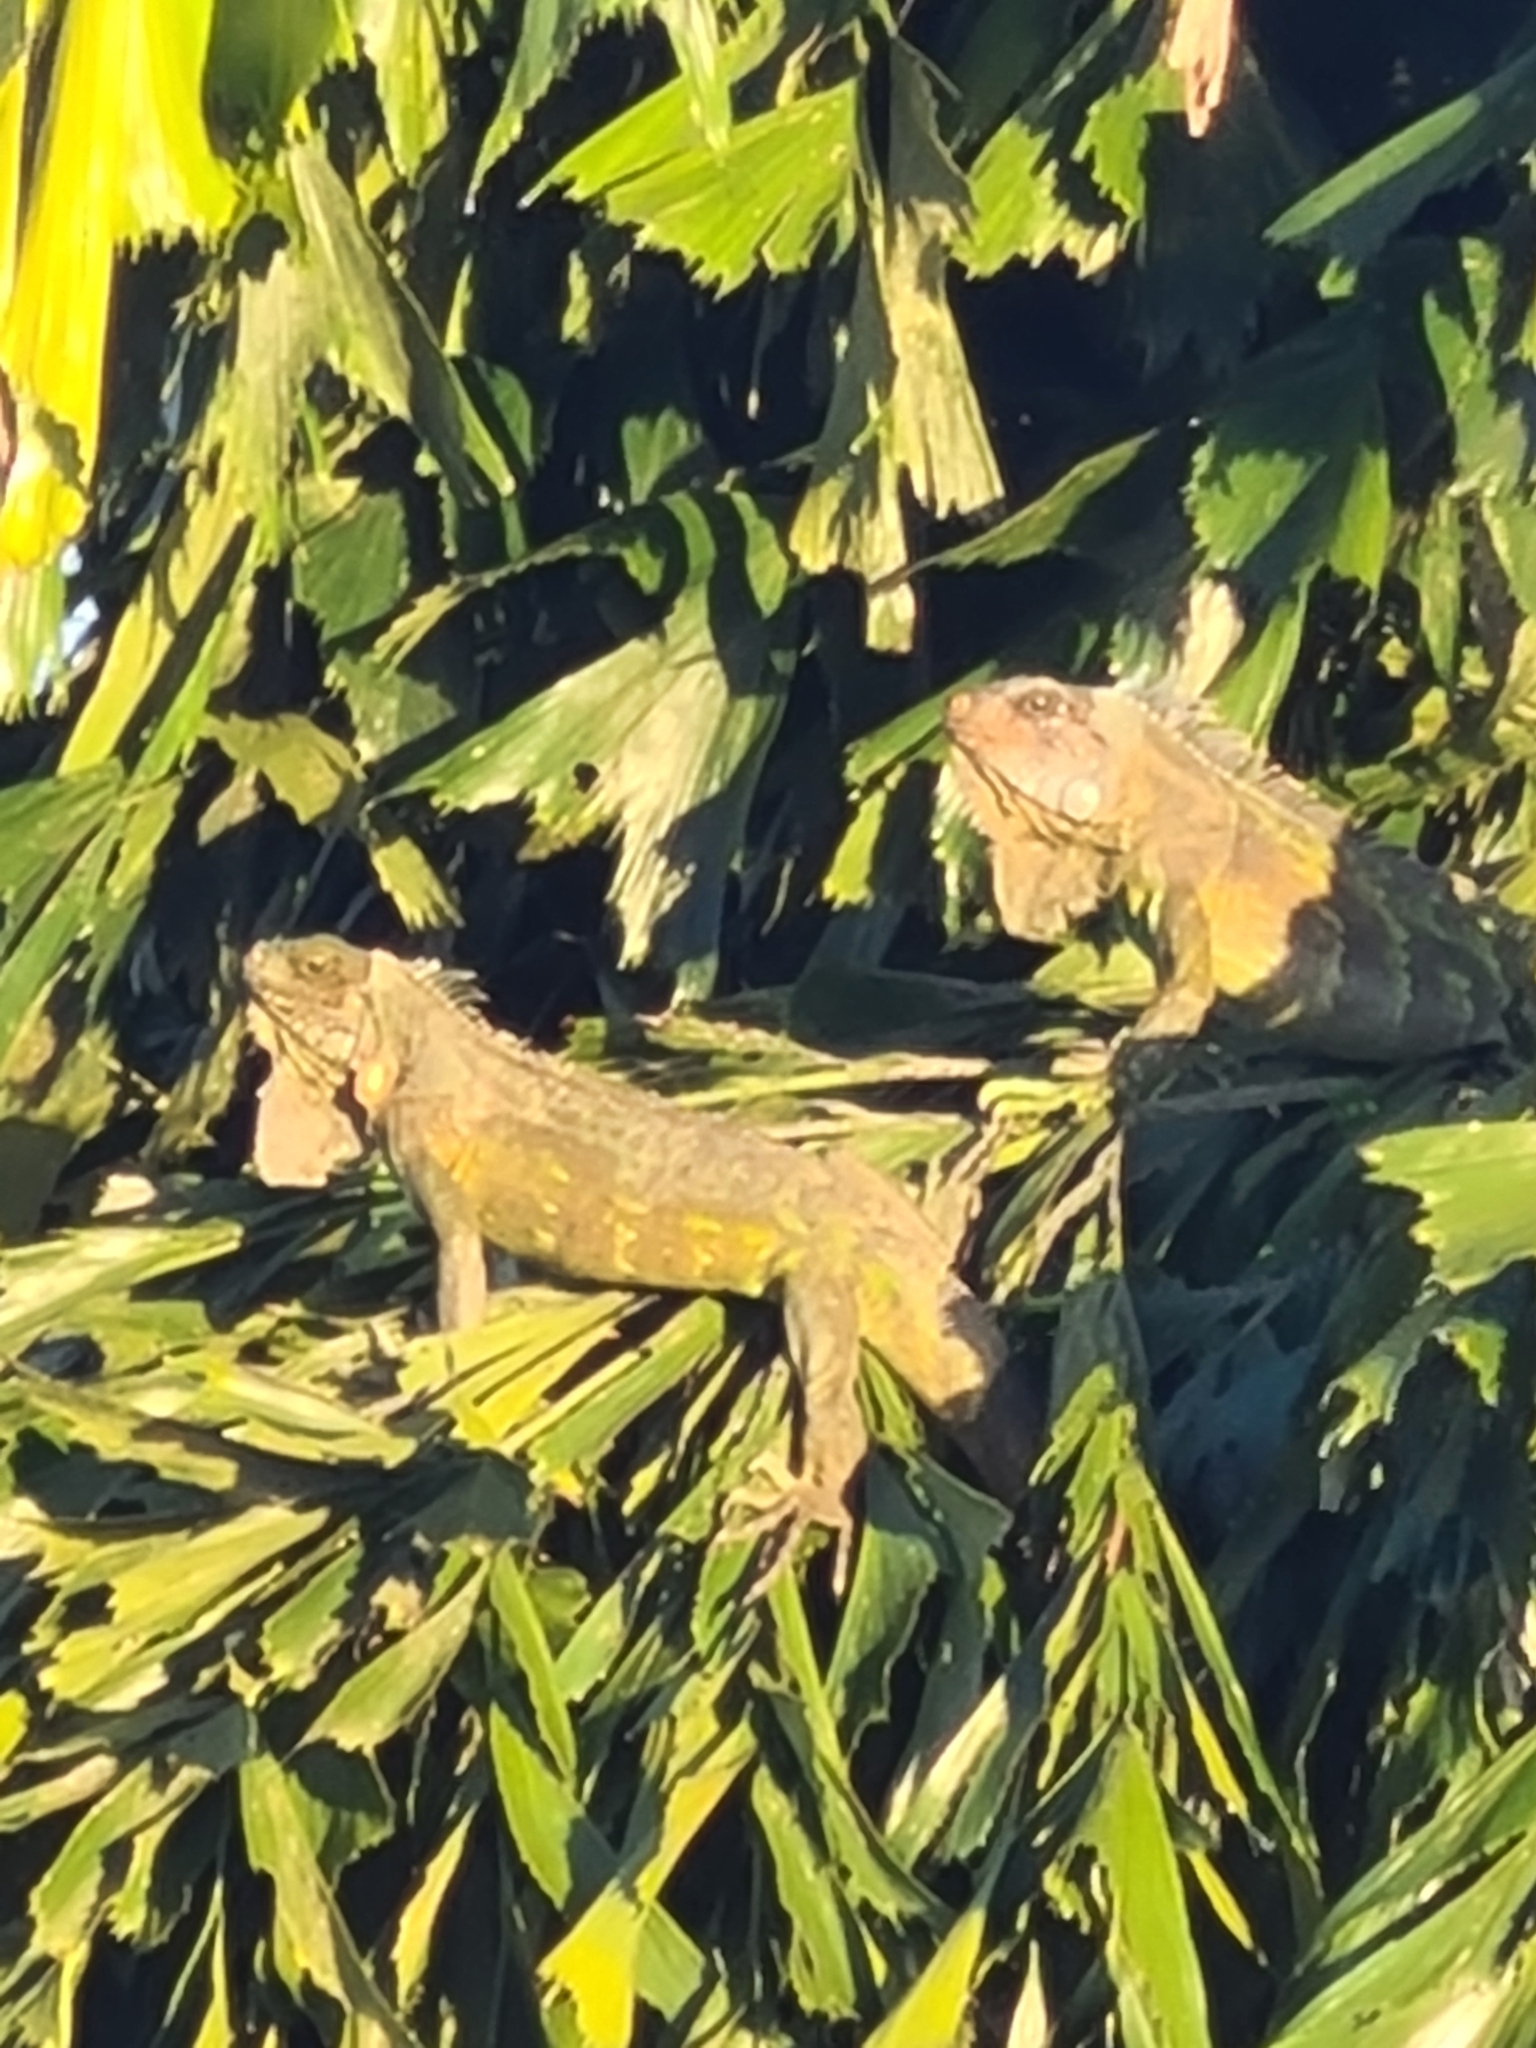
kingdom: Animalia
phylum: Chordata
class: Squamata
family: Iguanidae
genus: Iguana
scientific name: Iguana iguana
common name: Green iguana
